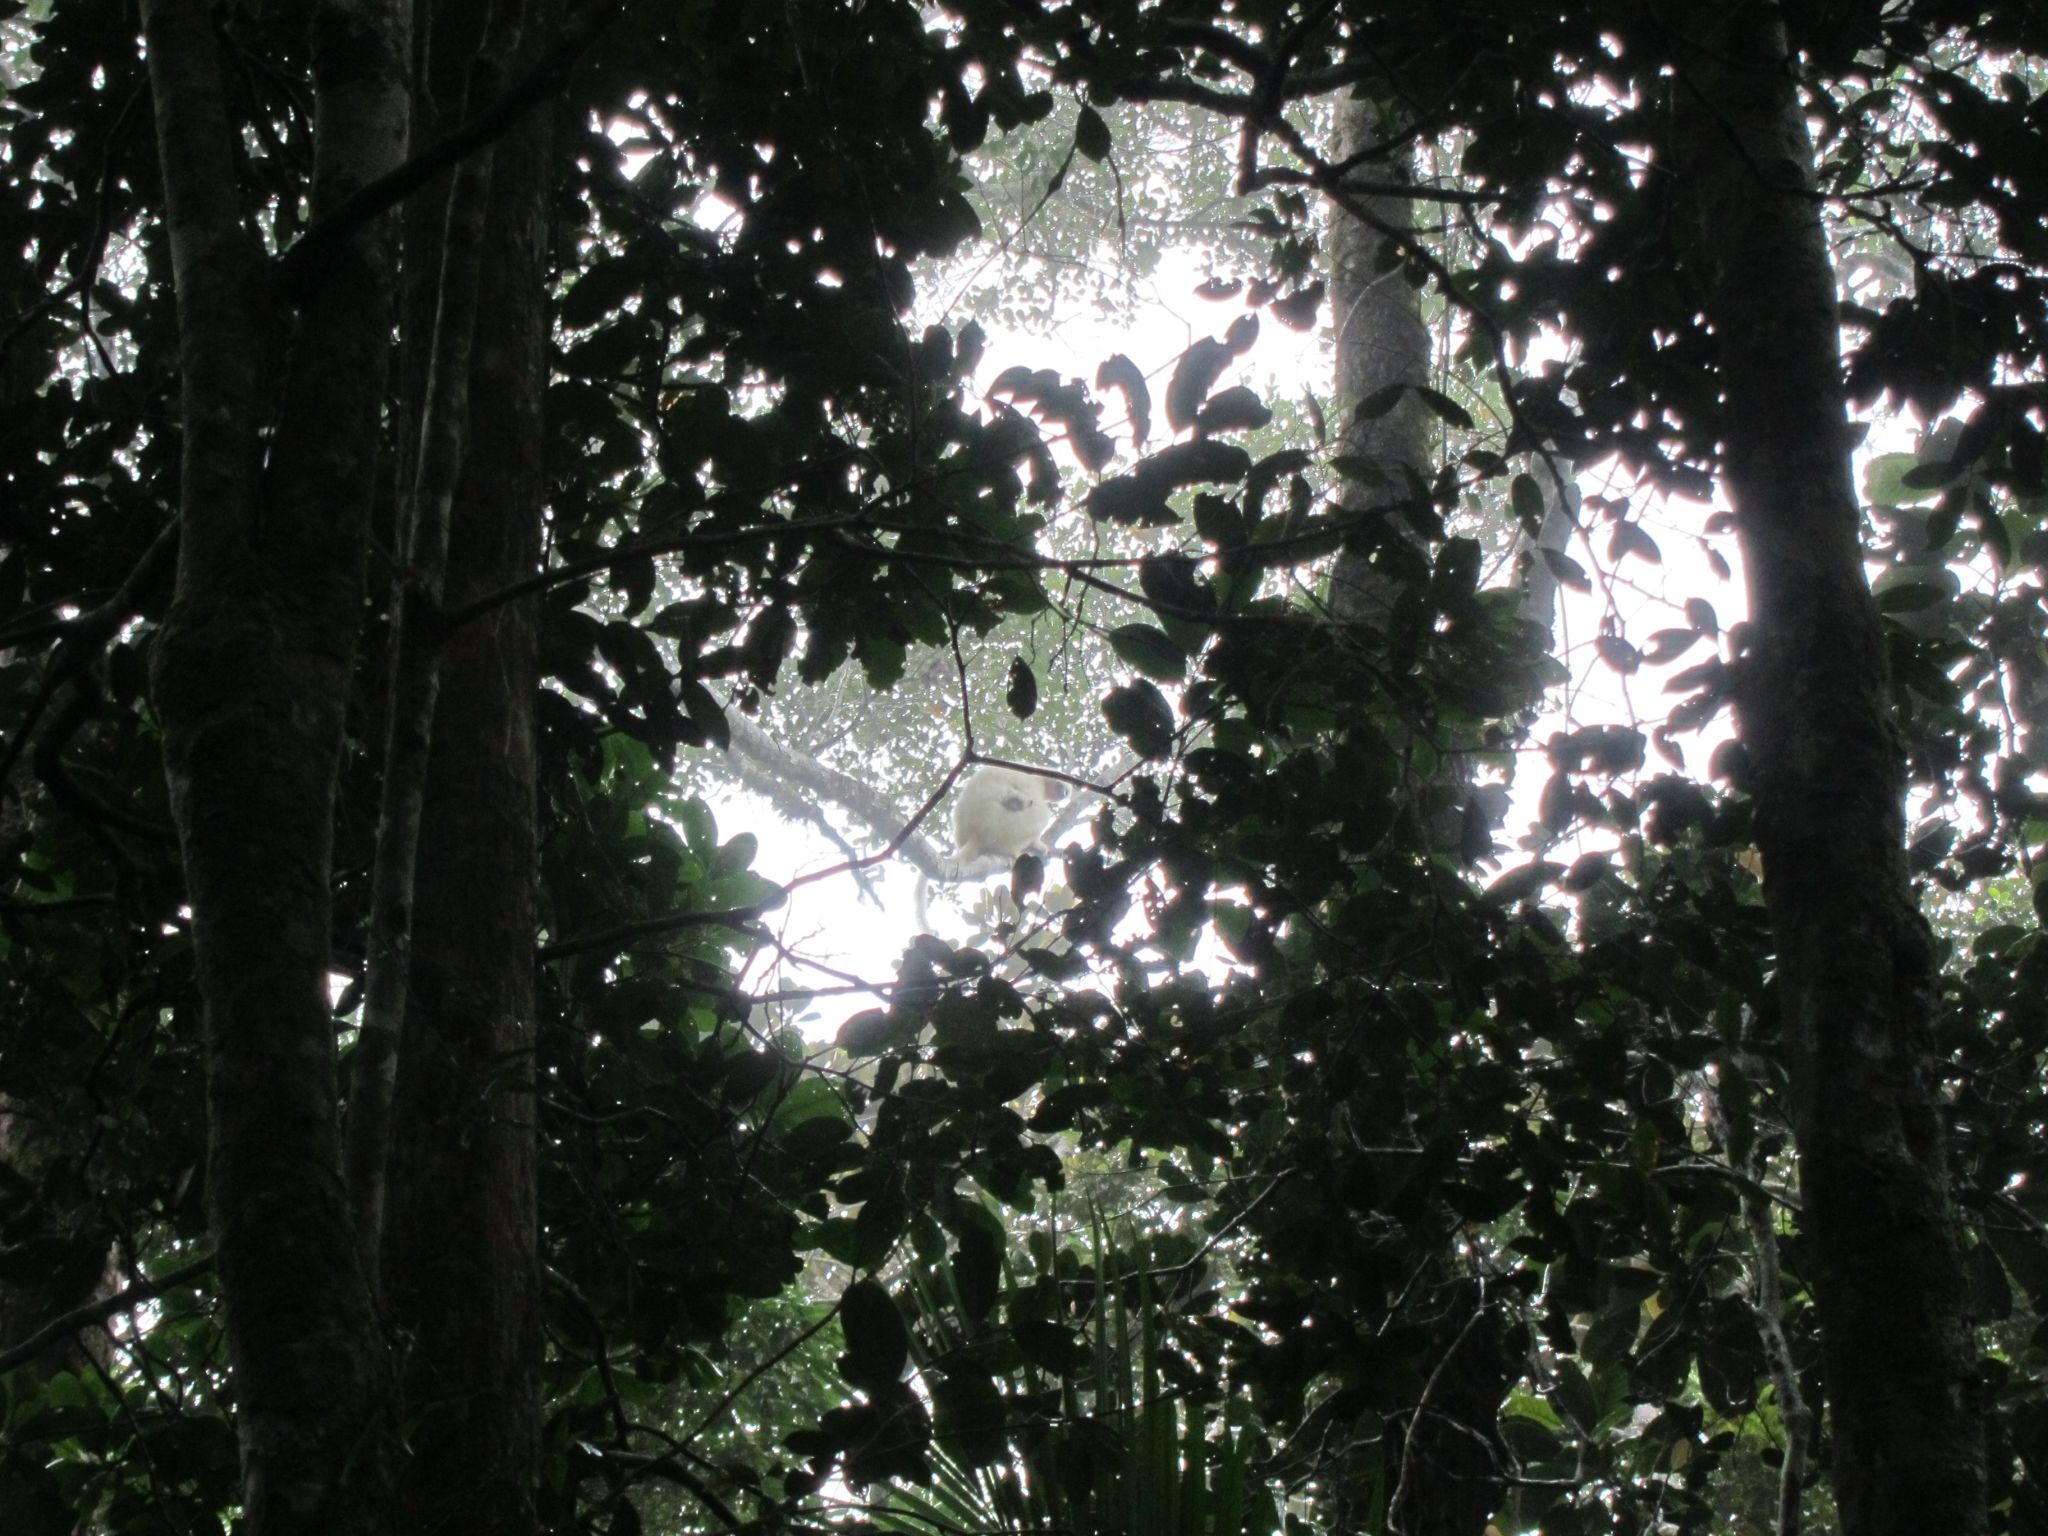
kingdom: Animalia
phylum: Chordata
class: Mammalia
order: Primates
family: Indriidae
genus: Propithecus
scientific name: Propithecus candidus
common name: Silky sifaka
